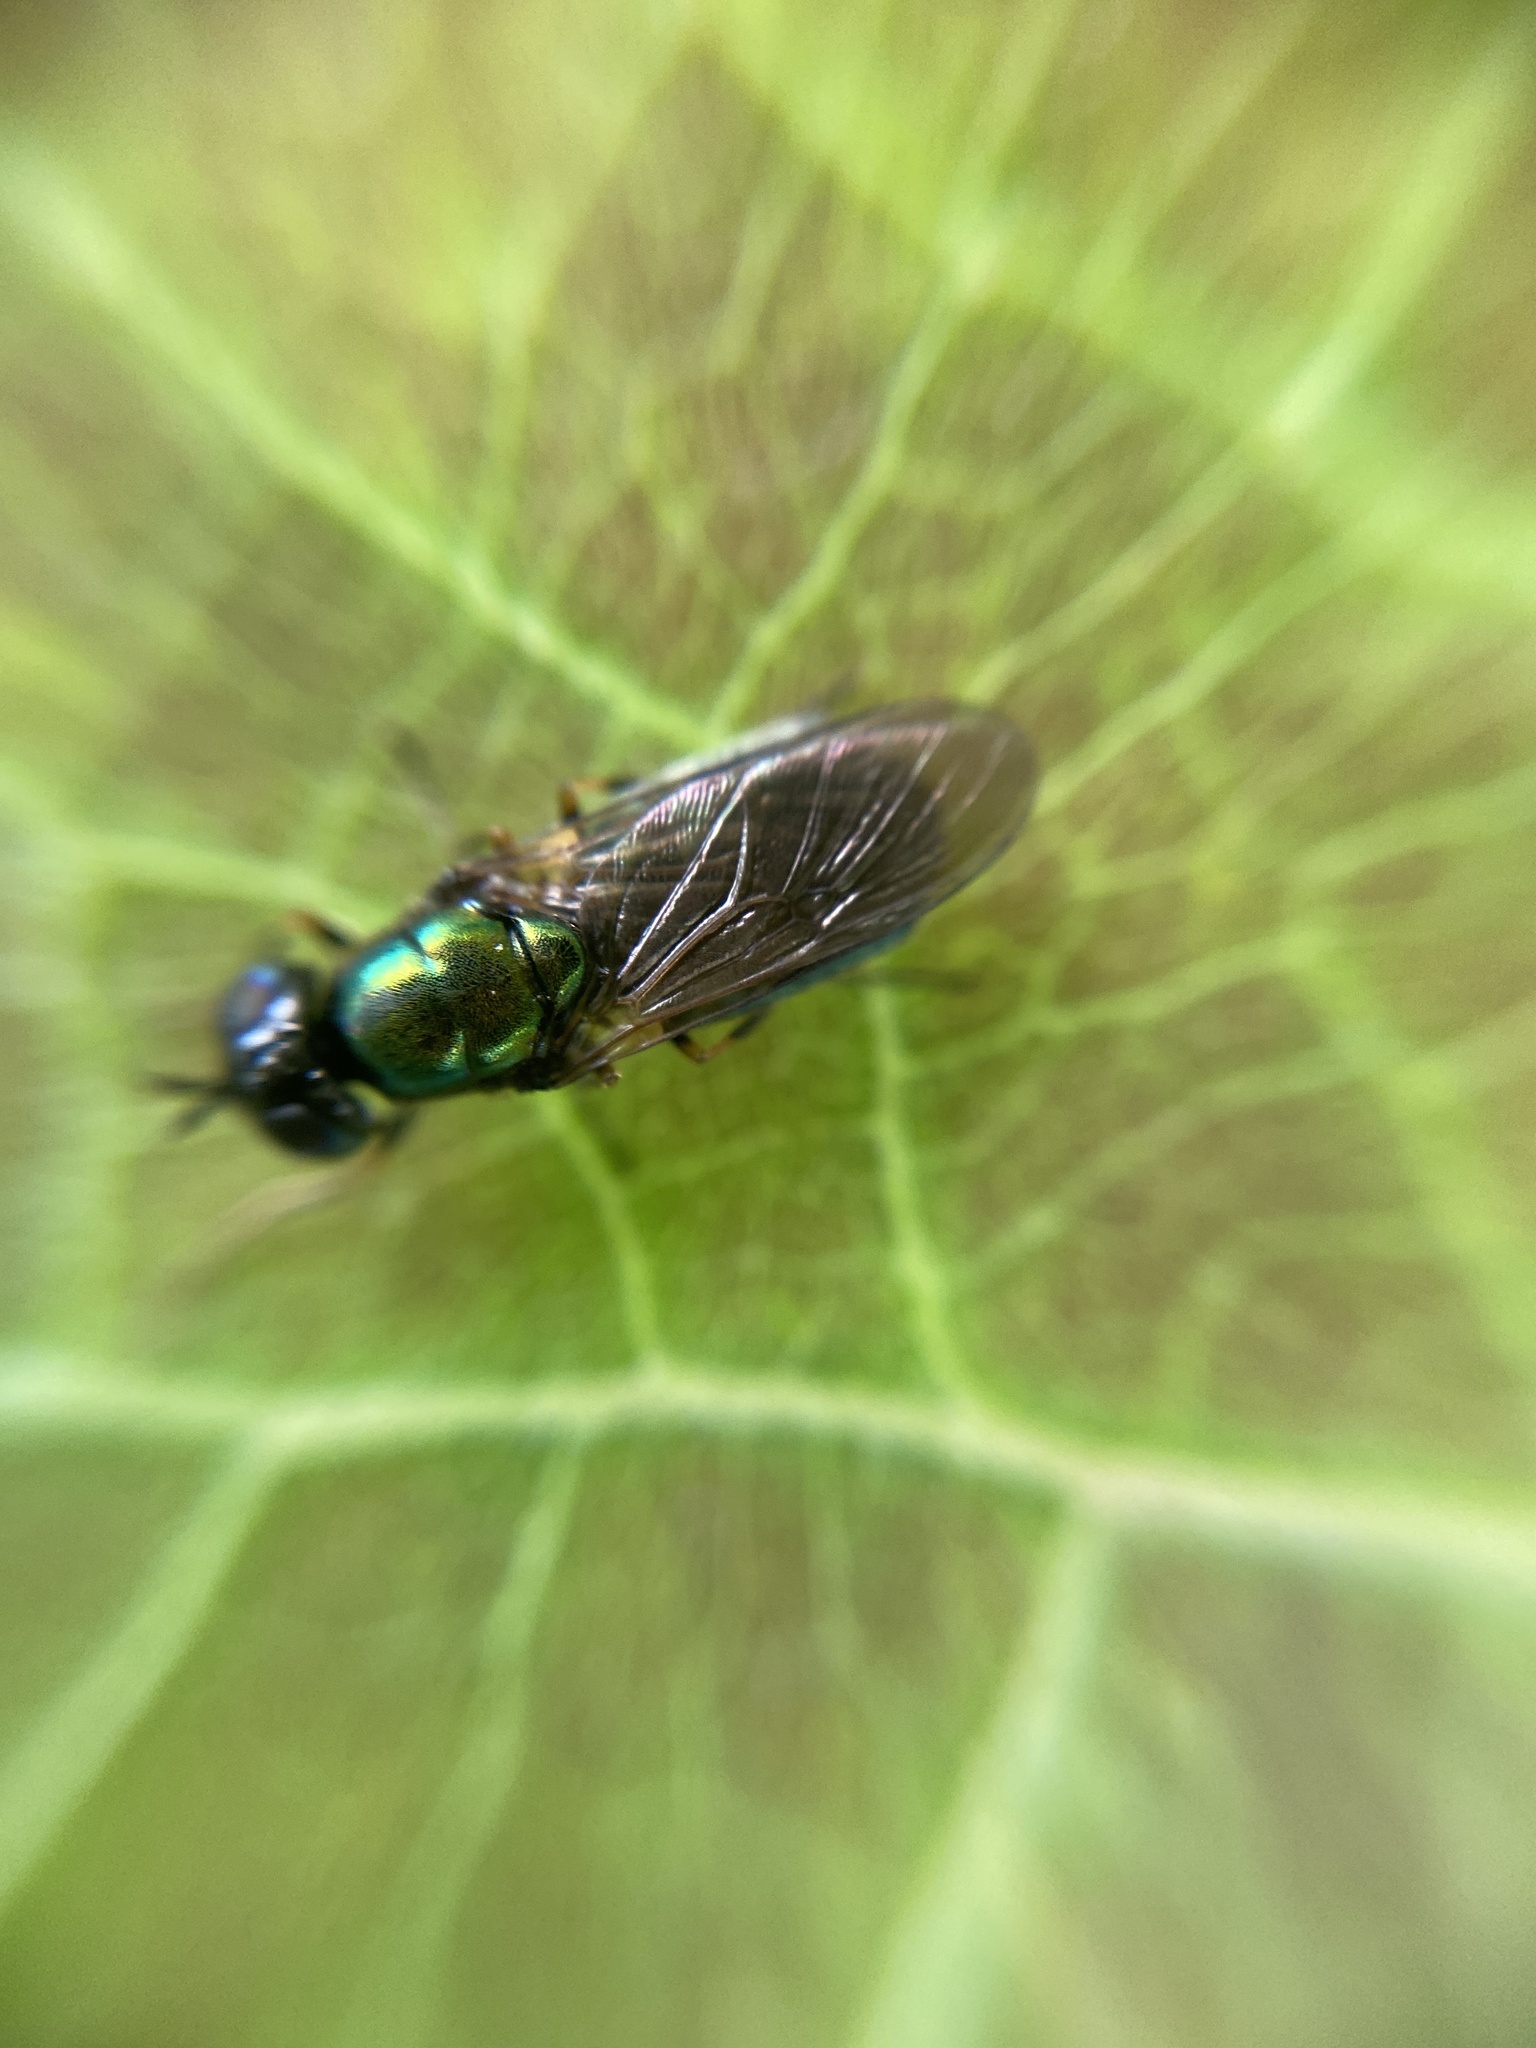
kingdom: Animalia
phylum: Arthropoda
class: Insecta
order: Diptera
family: Stratiomyidae
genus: Chloromyia
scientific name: Chloromyia formosa
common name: Soldier fly
